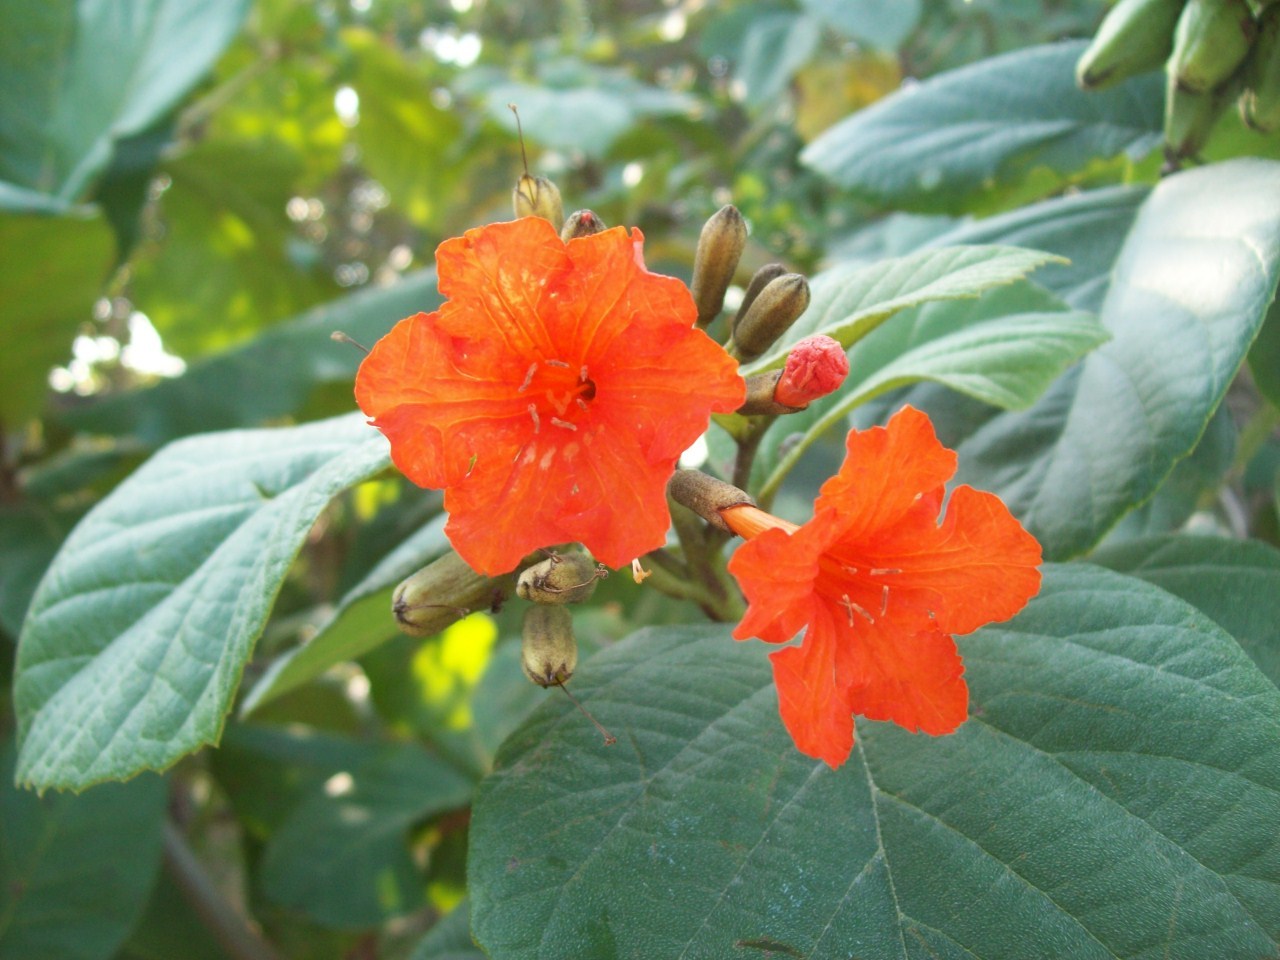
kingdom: Plantae
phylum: Tracheophyta
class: Magnoliopsida
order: Boraginales
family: Cordiaceae
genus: Cordia
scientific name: Cordia sebestena
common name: Largeleaf geigertree
